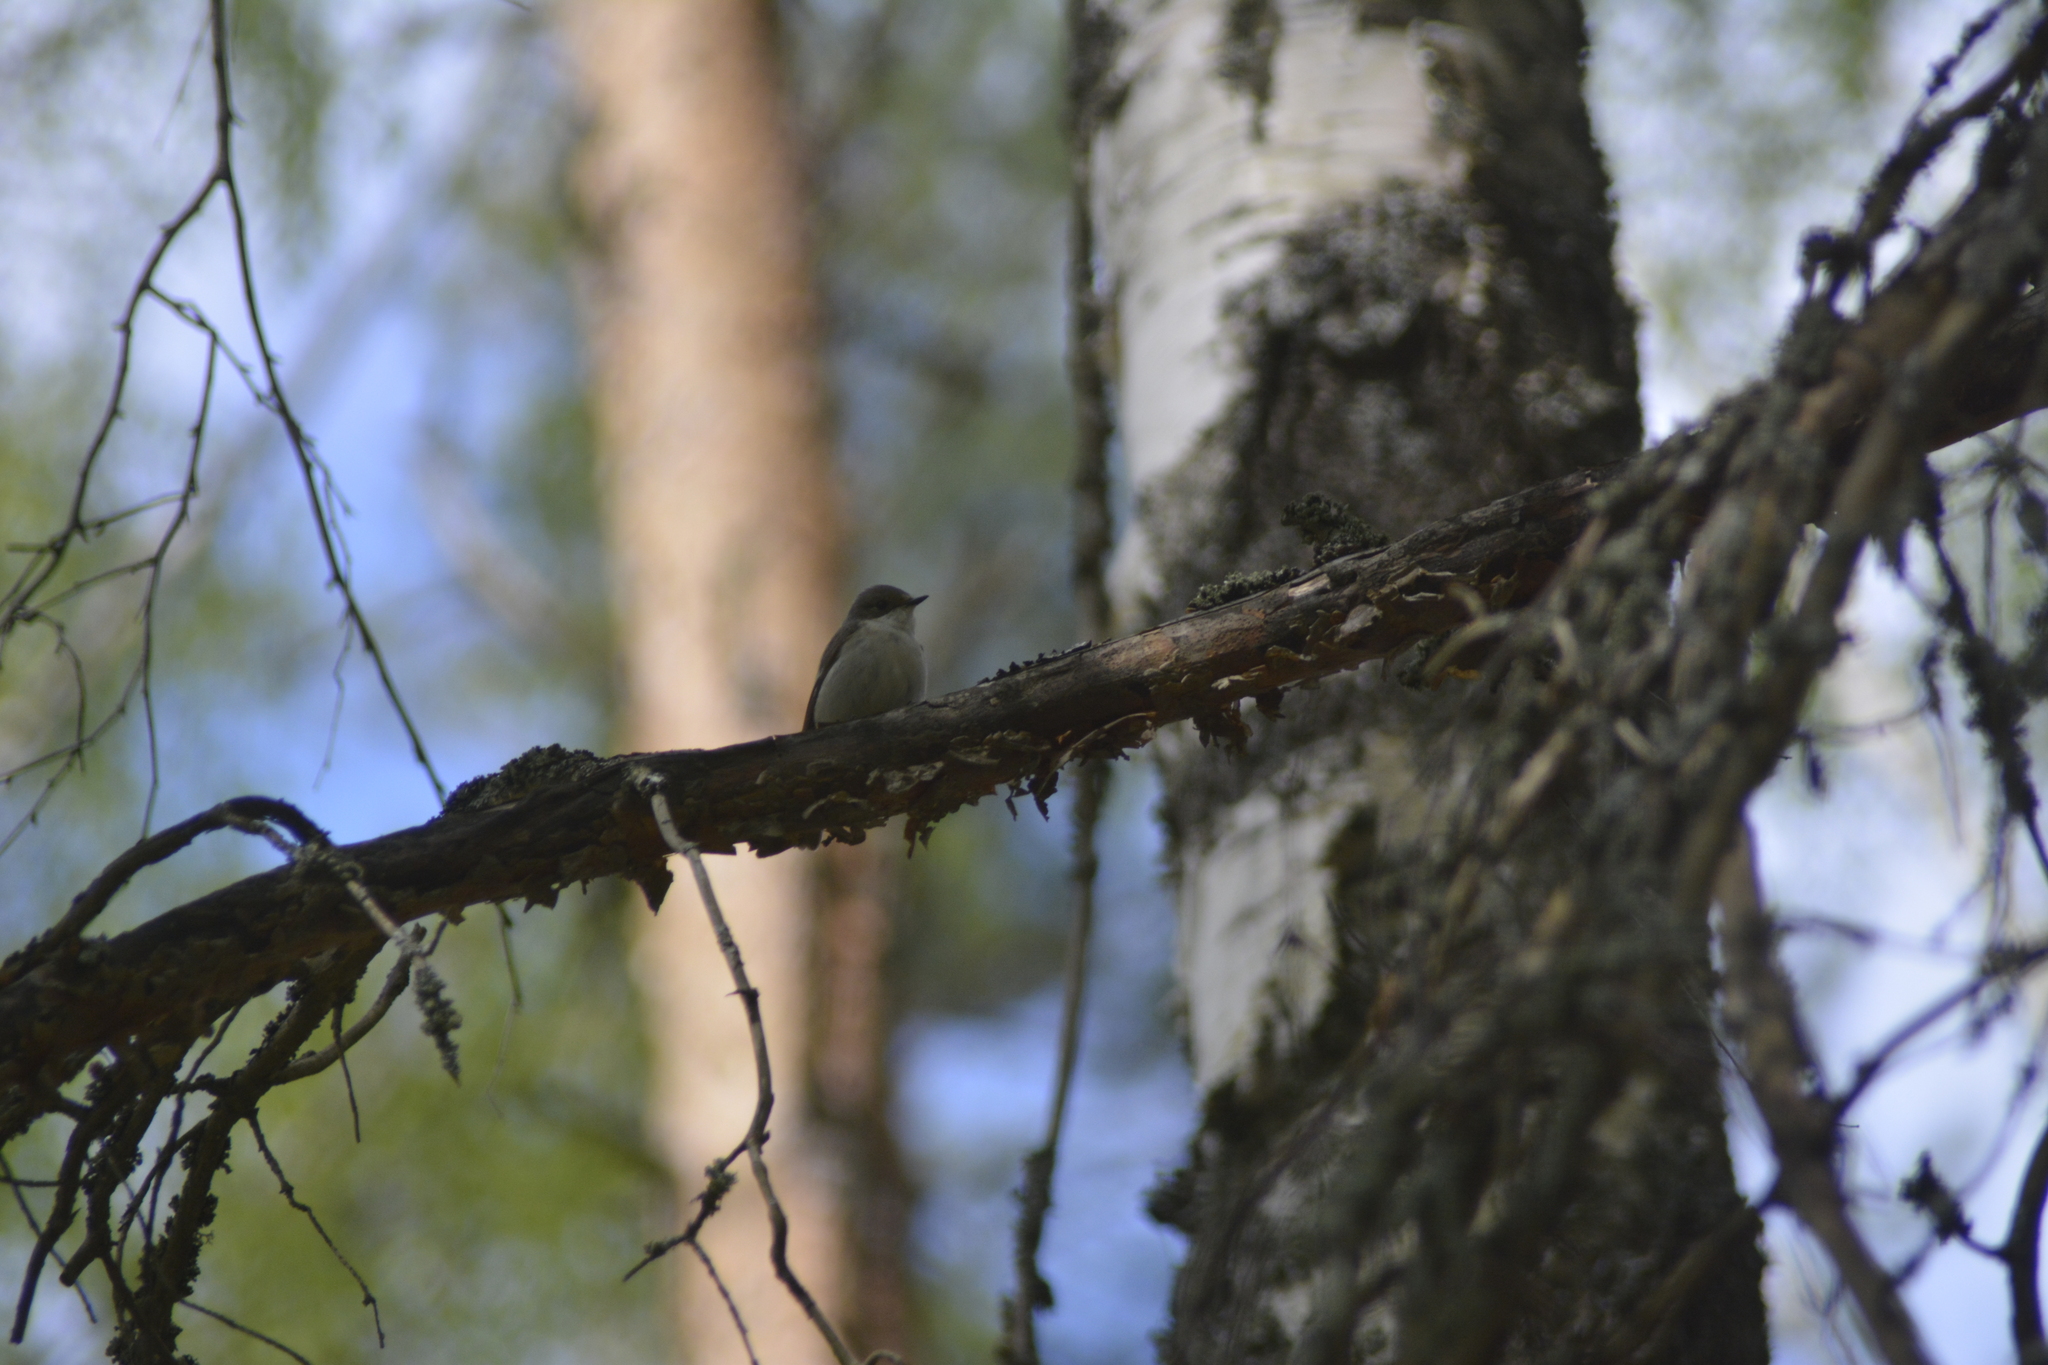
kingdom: Animalia
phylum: Chordata
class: Aves
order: Passeriformes
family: Muscicapidae
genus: Ficedula
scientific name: Ficedula hypoleuca
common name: European pied flycatcher
